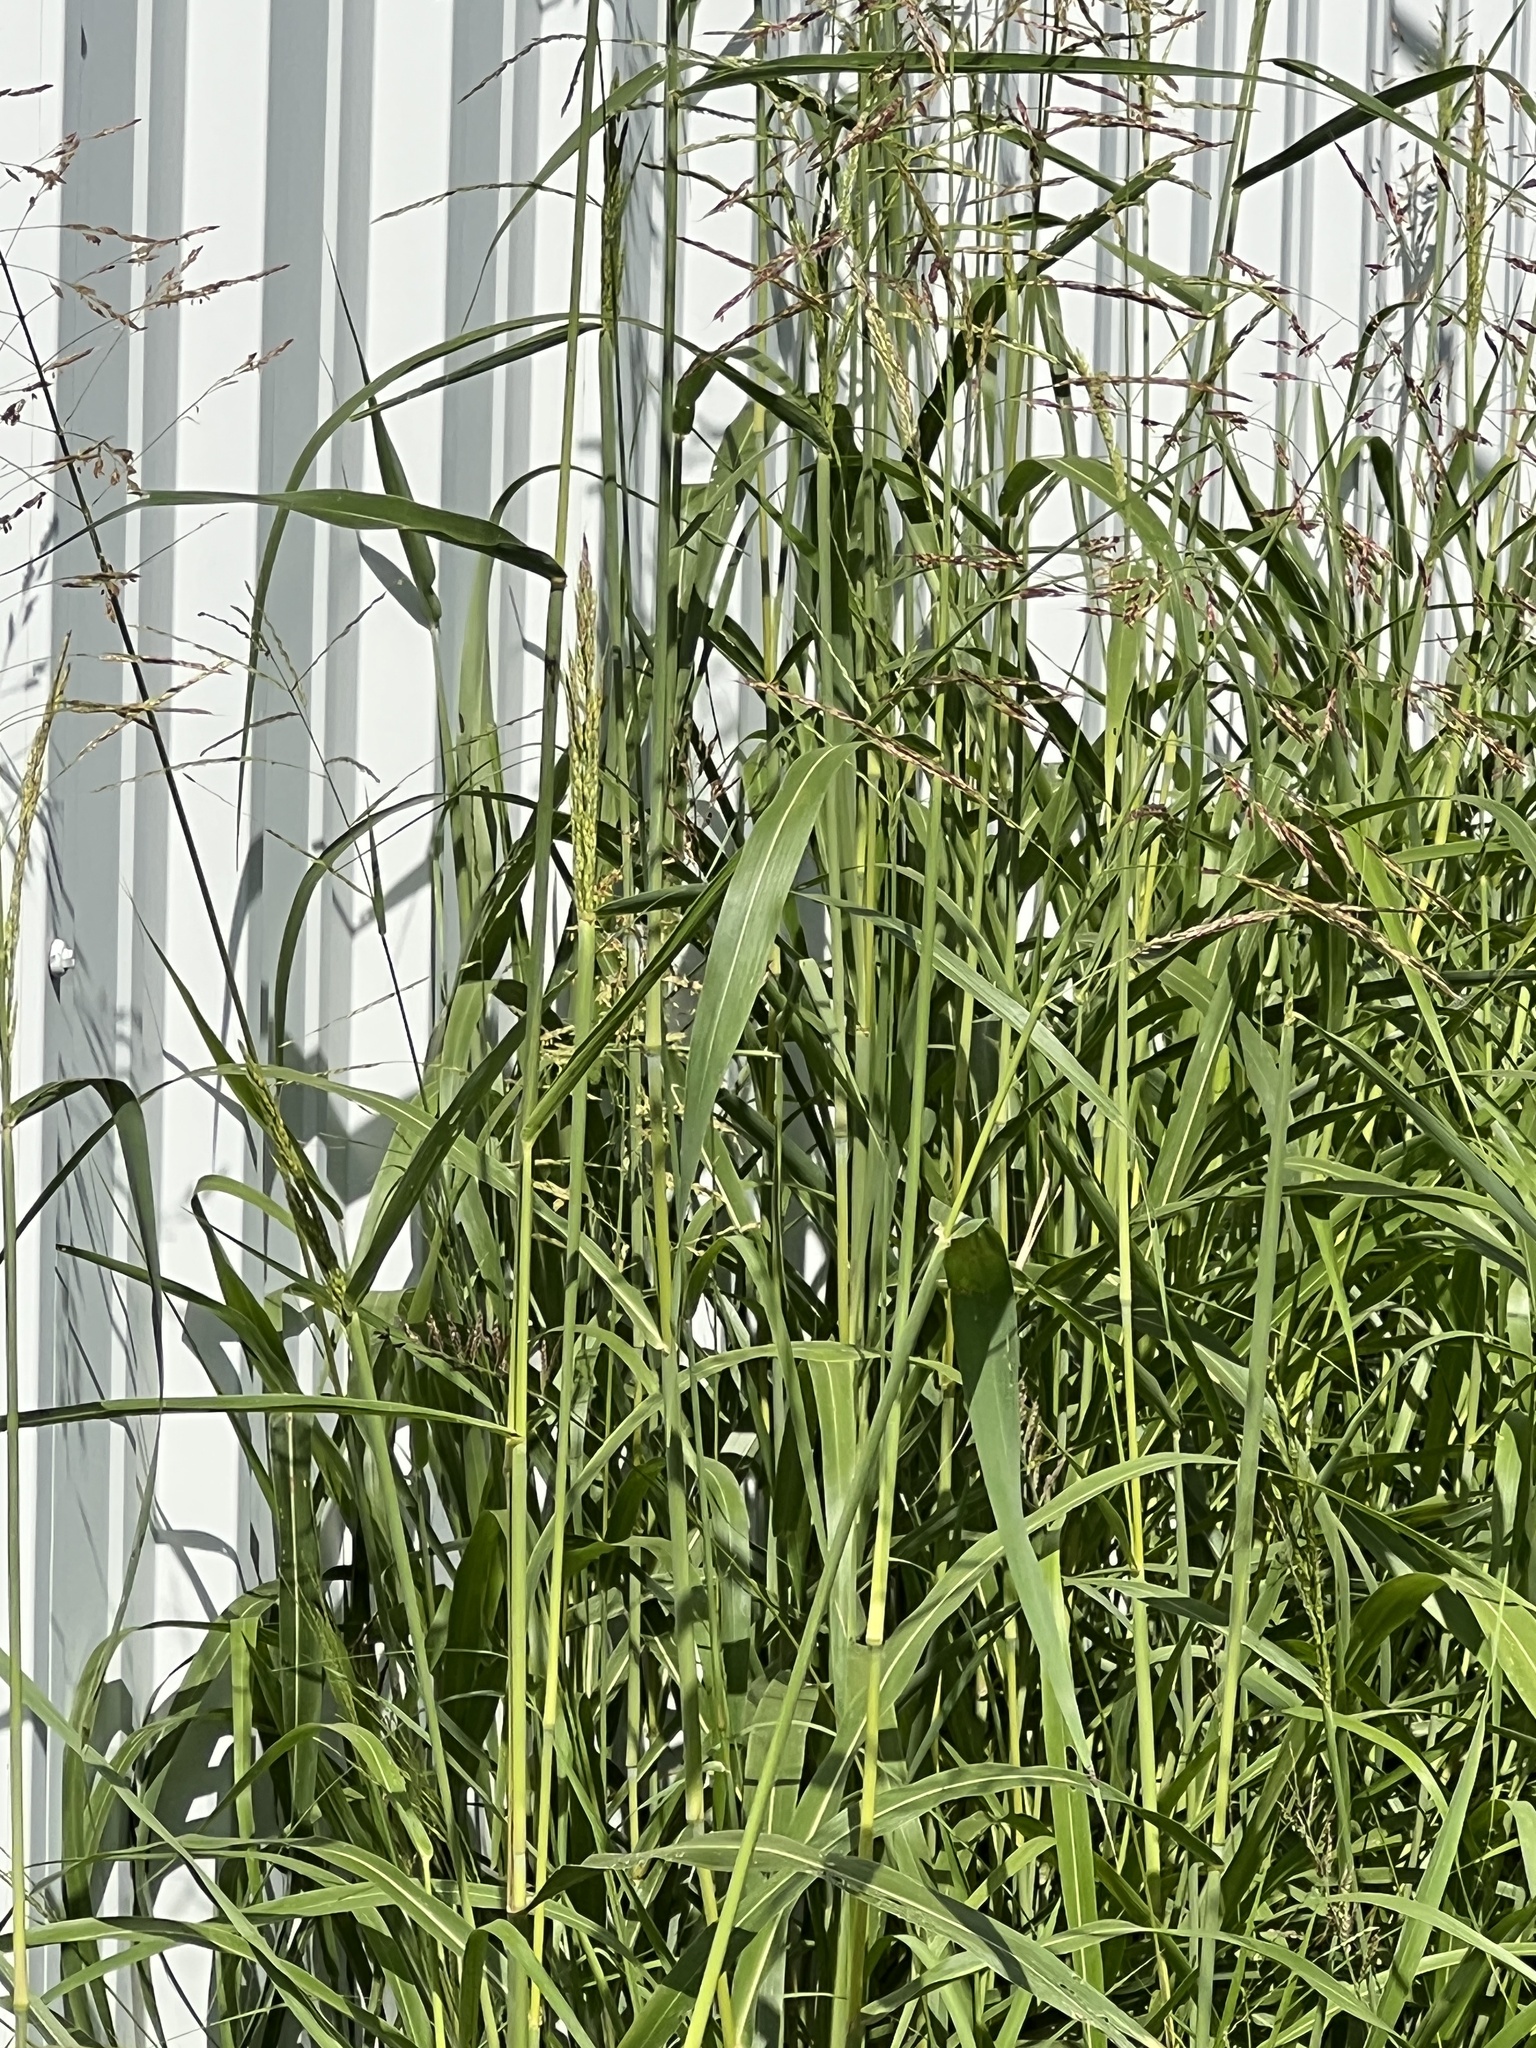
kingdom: Plantae
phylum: Tracheophyta
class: Liliopsida
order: Poales
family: Poaceae
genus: Sorghum
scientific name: Sorghum halepense
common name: Johnson-grass
